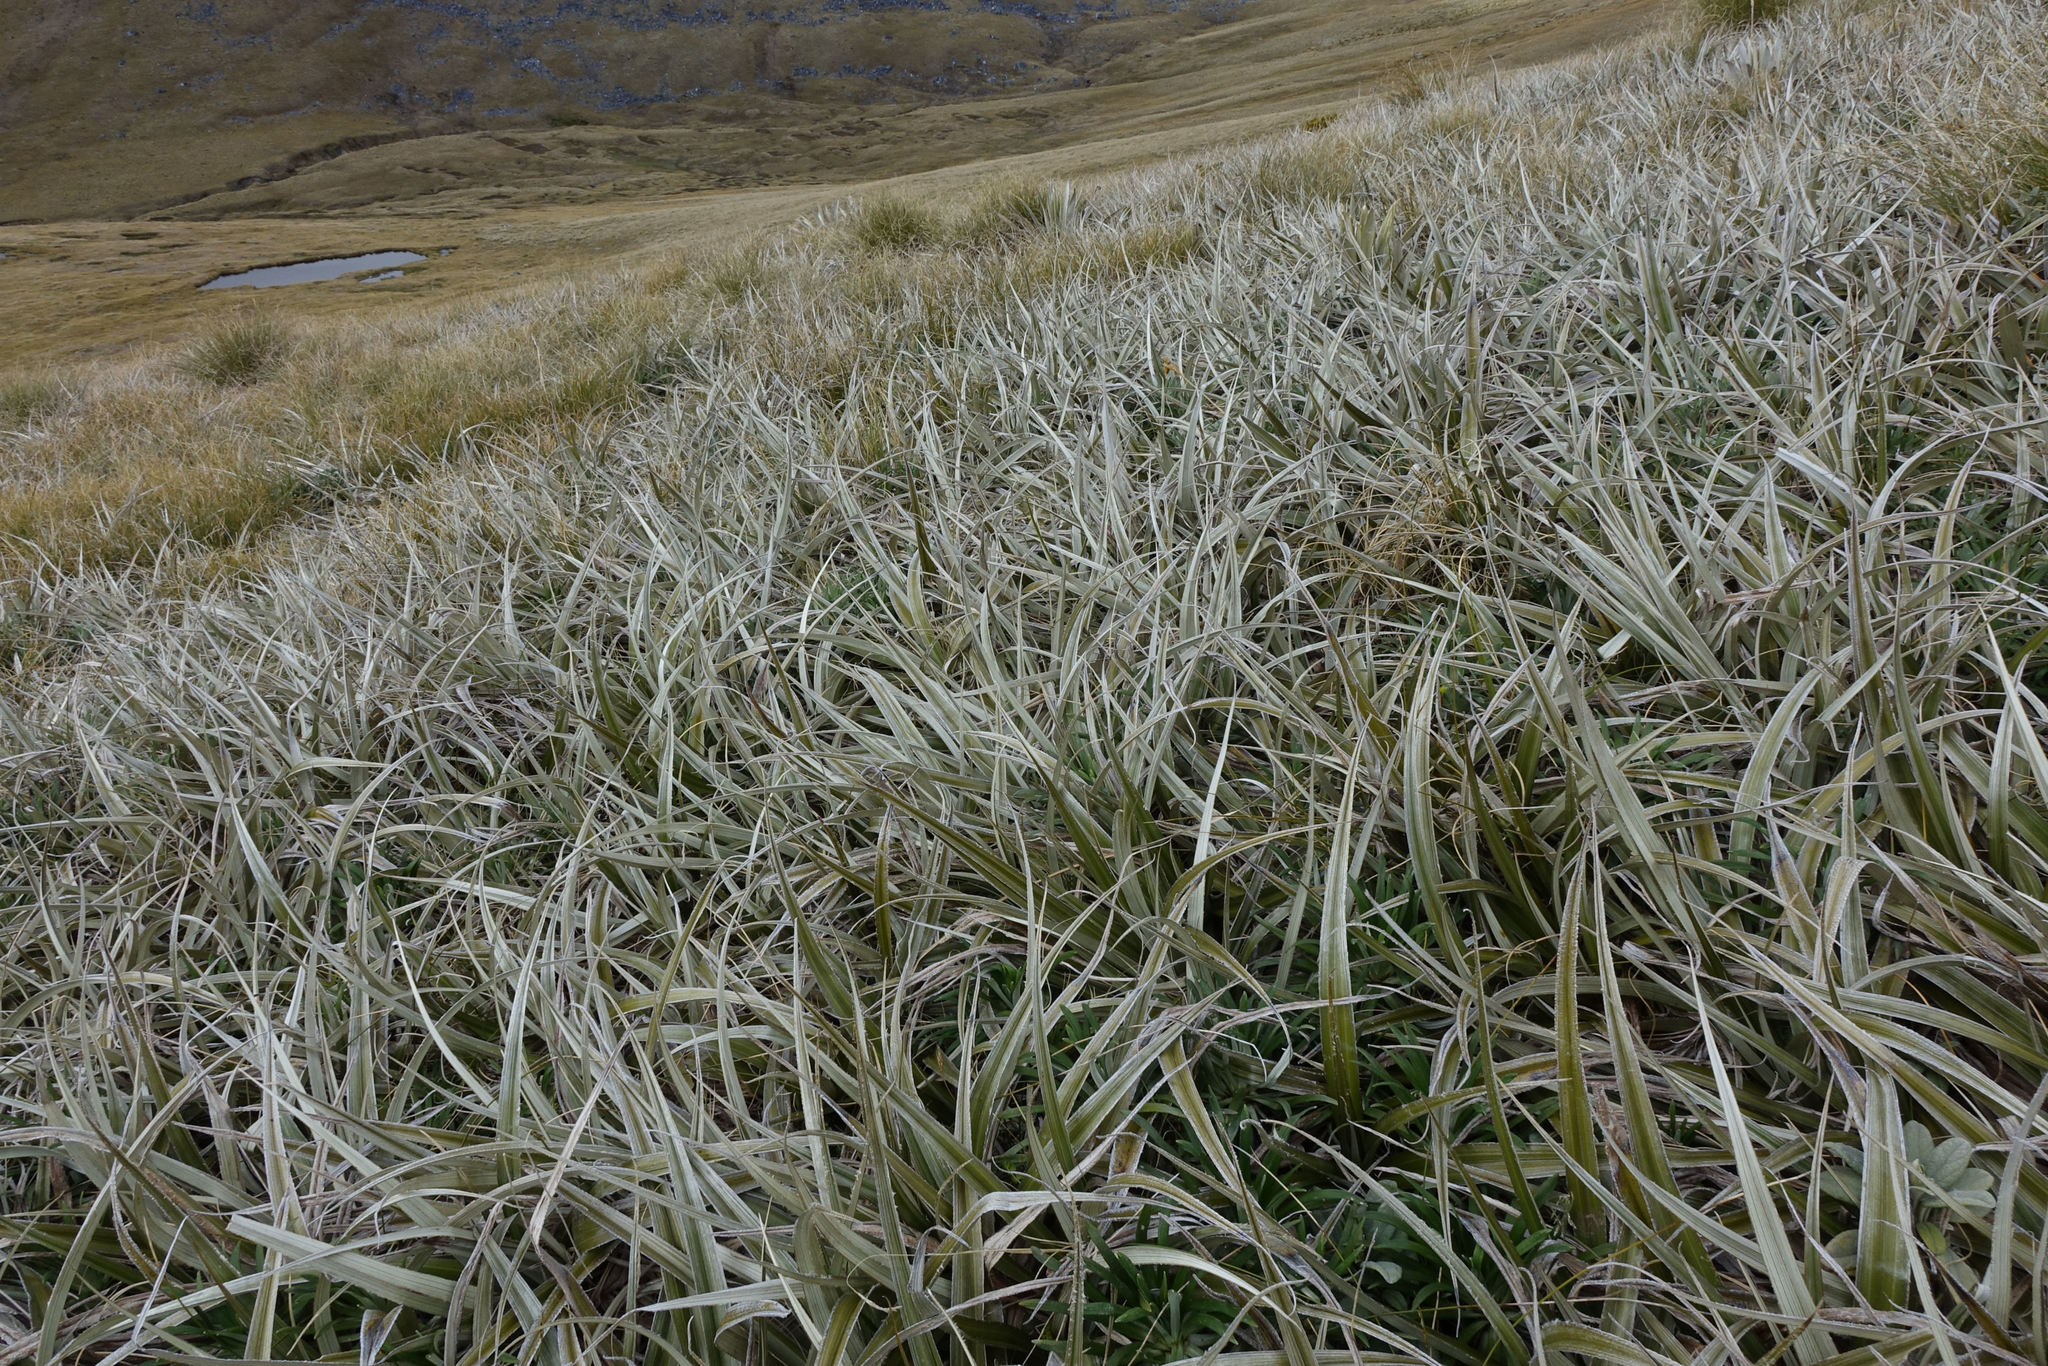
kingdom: Plantae
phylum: Tracheophyta
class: Liliopsida
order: Asparagales
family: Asteliaceae
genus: Astelia
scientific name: Astelia nivicola
